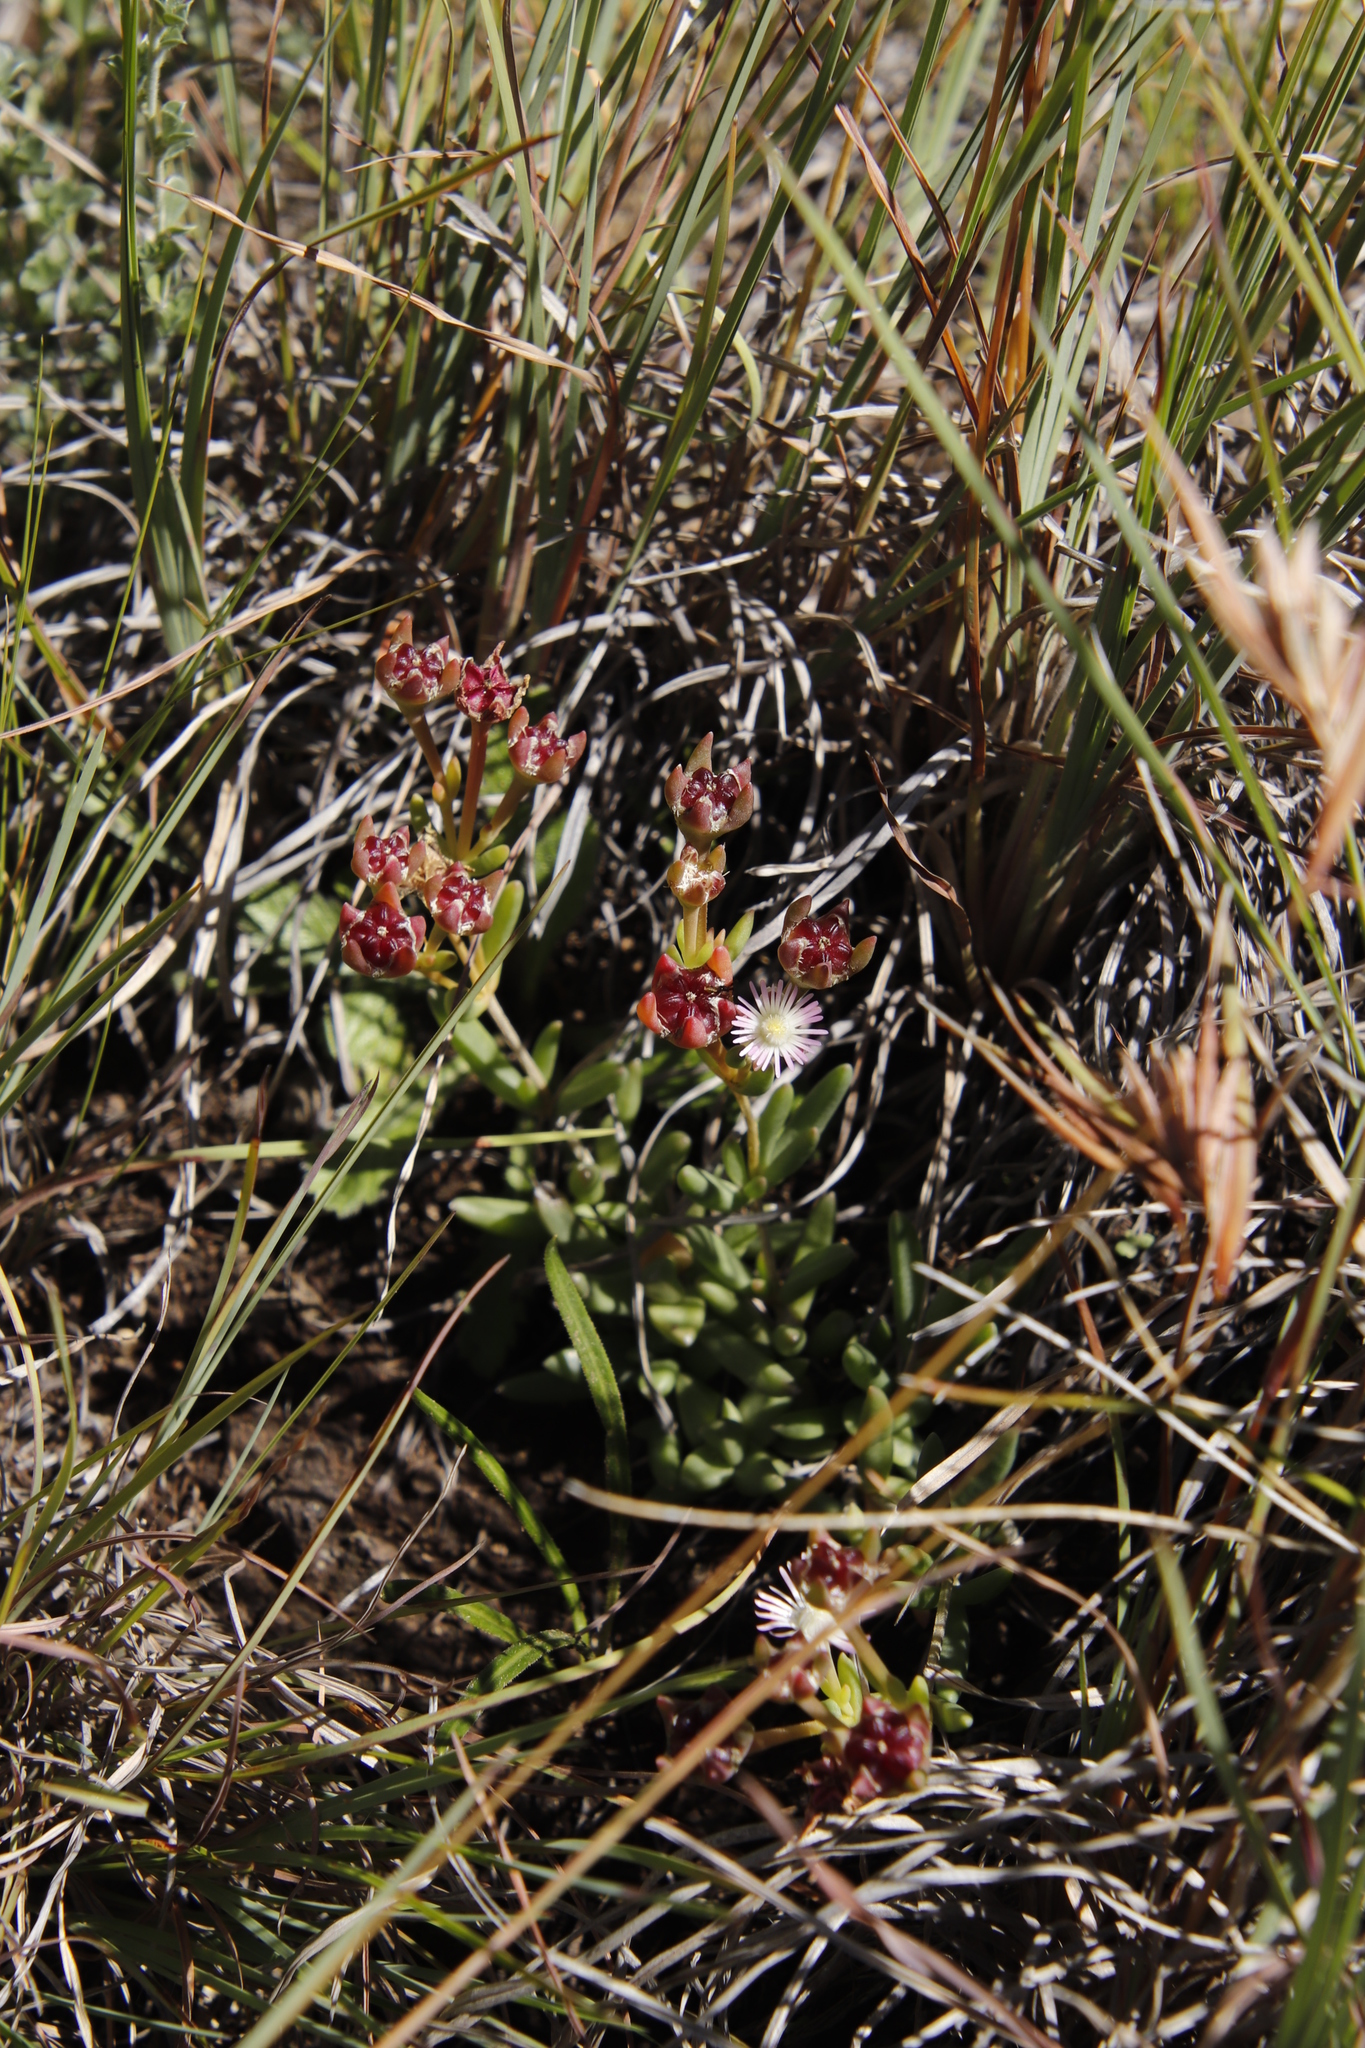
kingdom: Plantae
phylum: Tracheophyta
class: Magnoliopsida
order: Caryophyllales
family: Aizoaceae
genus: Delosperma
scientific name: Delosperma brevisepalum
